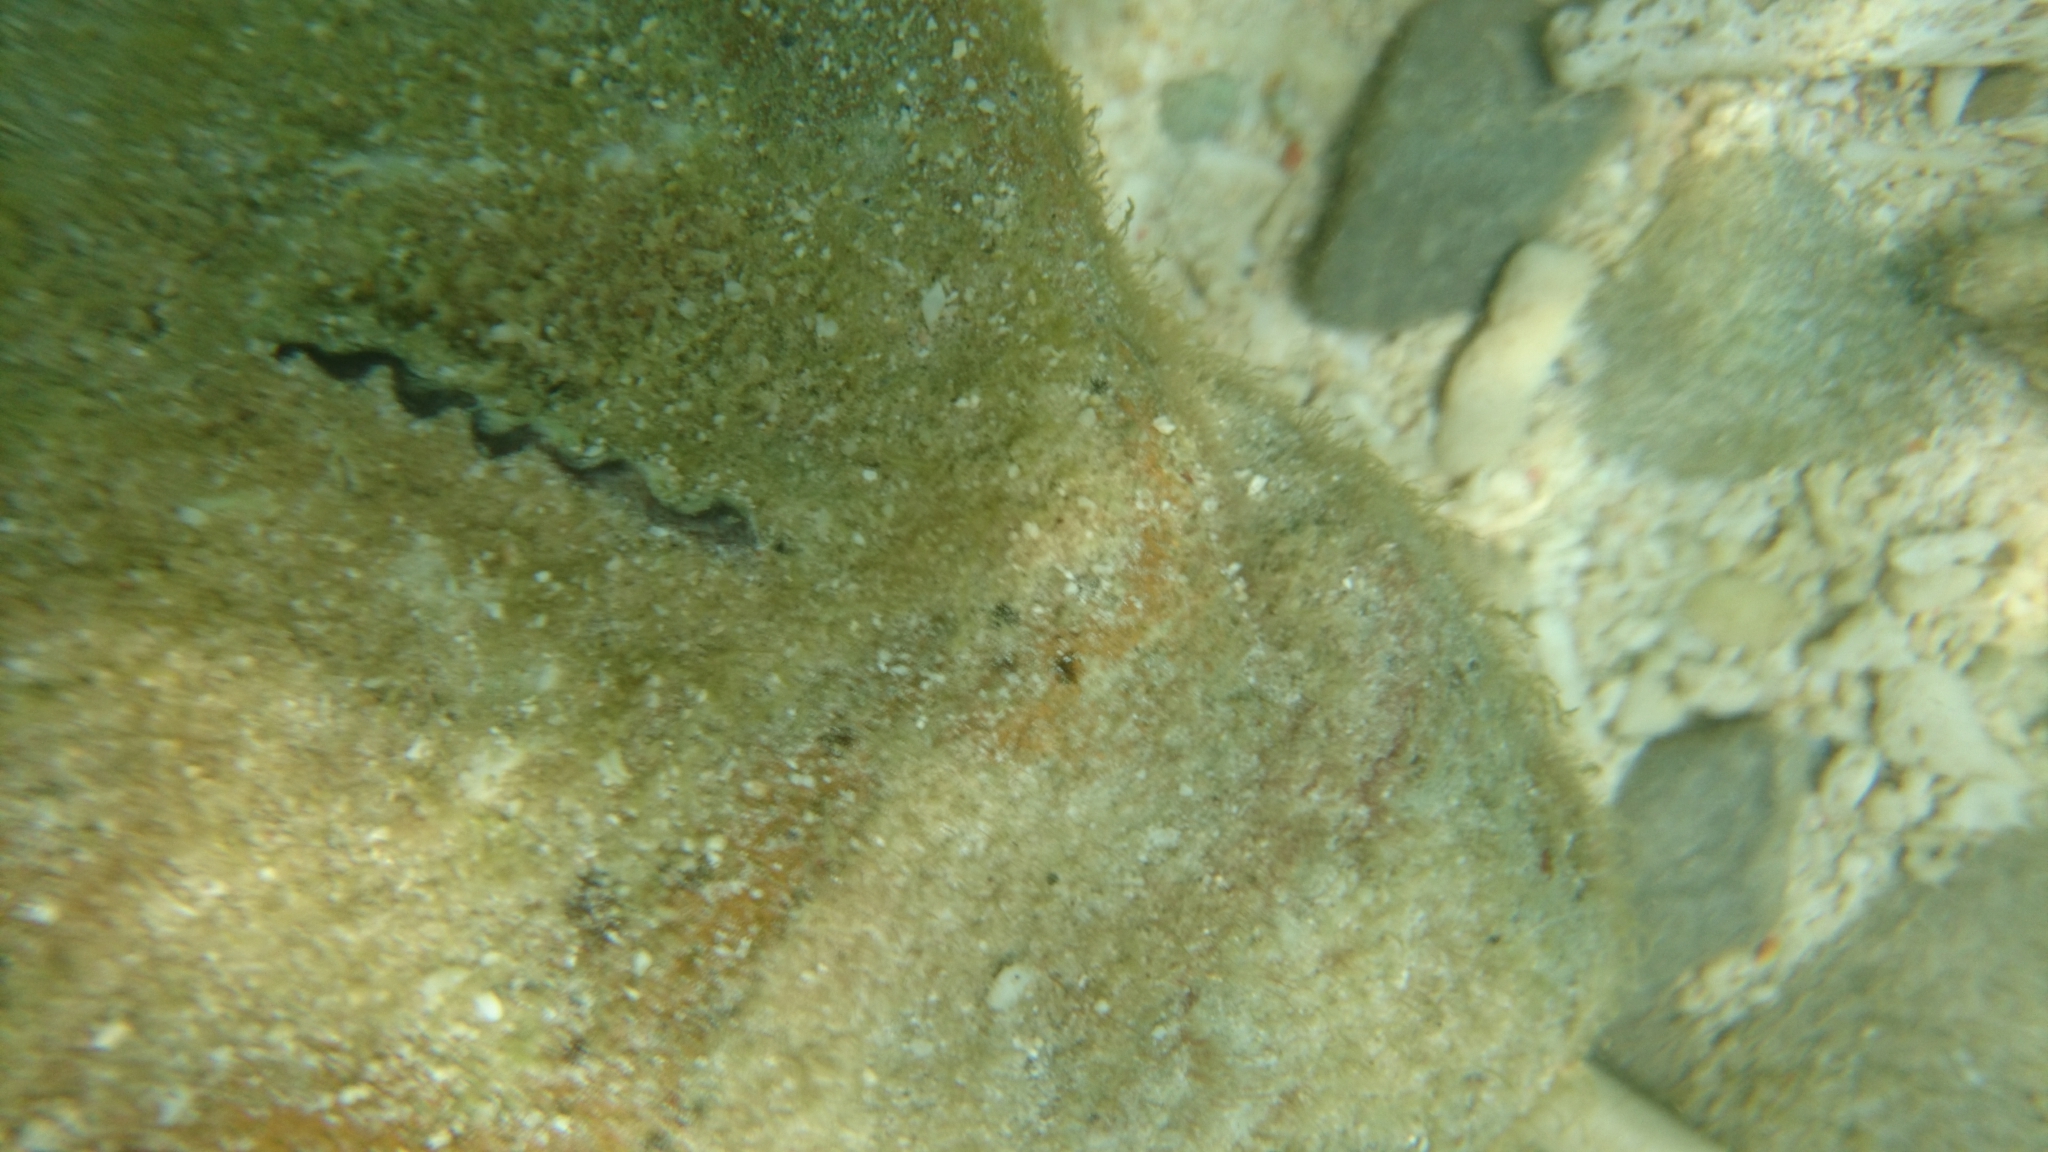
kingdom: Animalia
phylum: Mollusca
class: Bivalvia
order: Cardiida
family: Cardiidae
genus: Tridacna
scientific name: Tridacna crocea
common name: Boring clam
